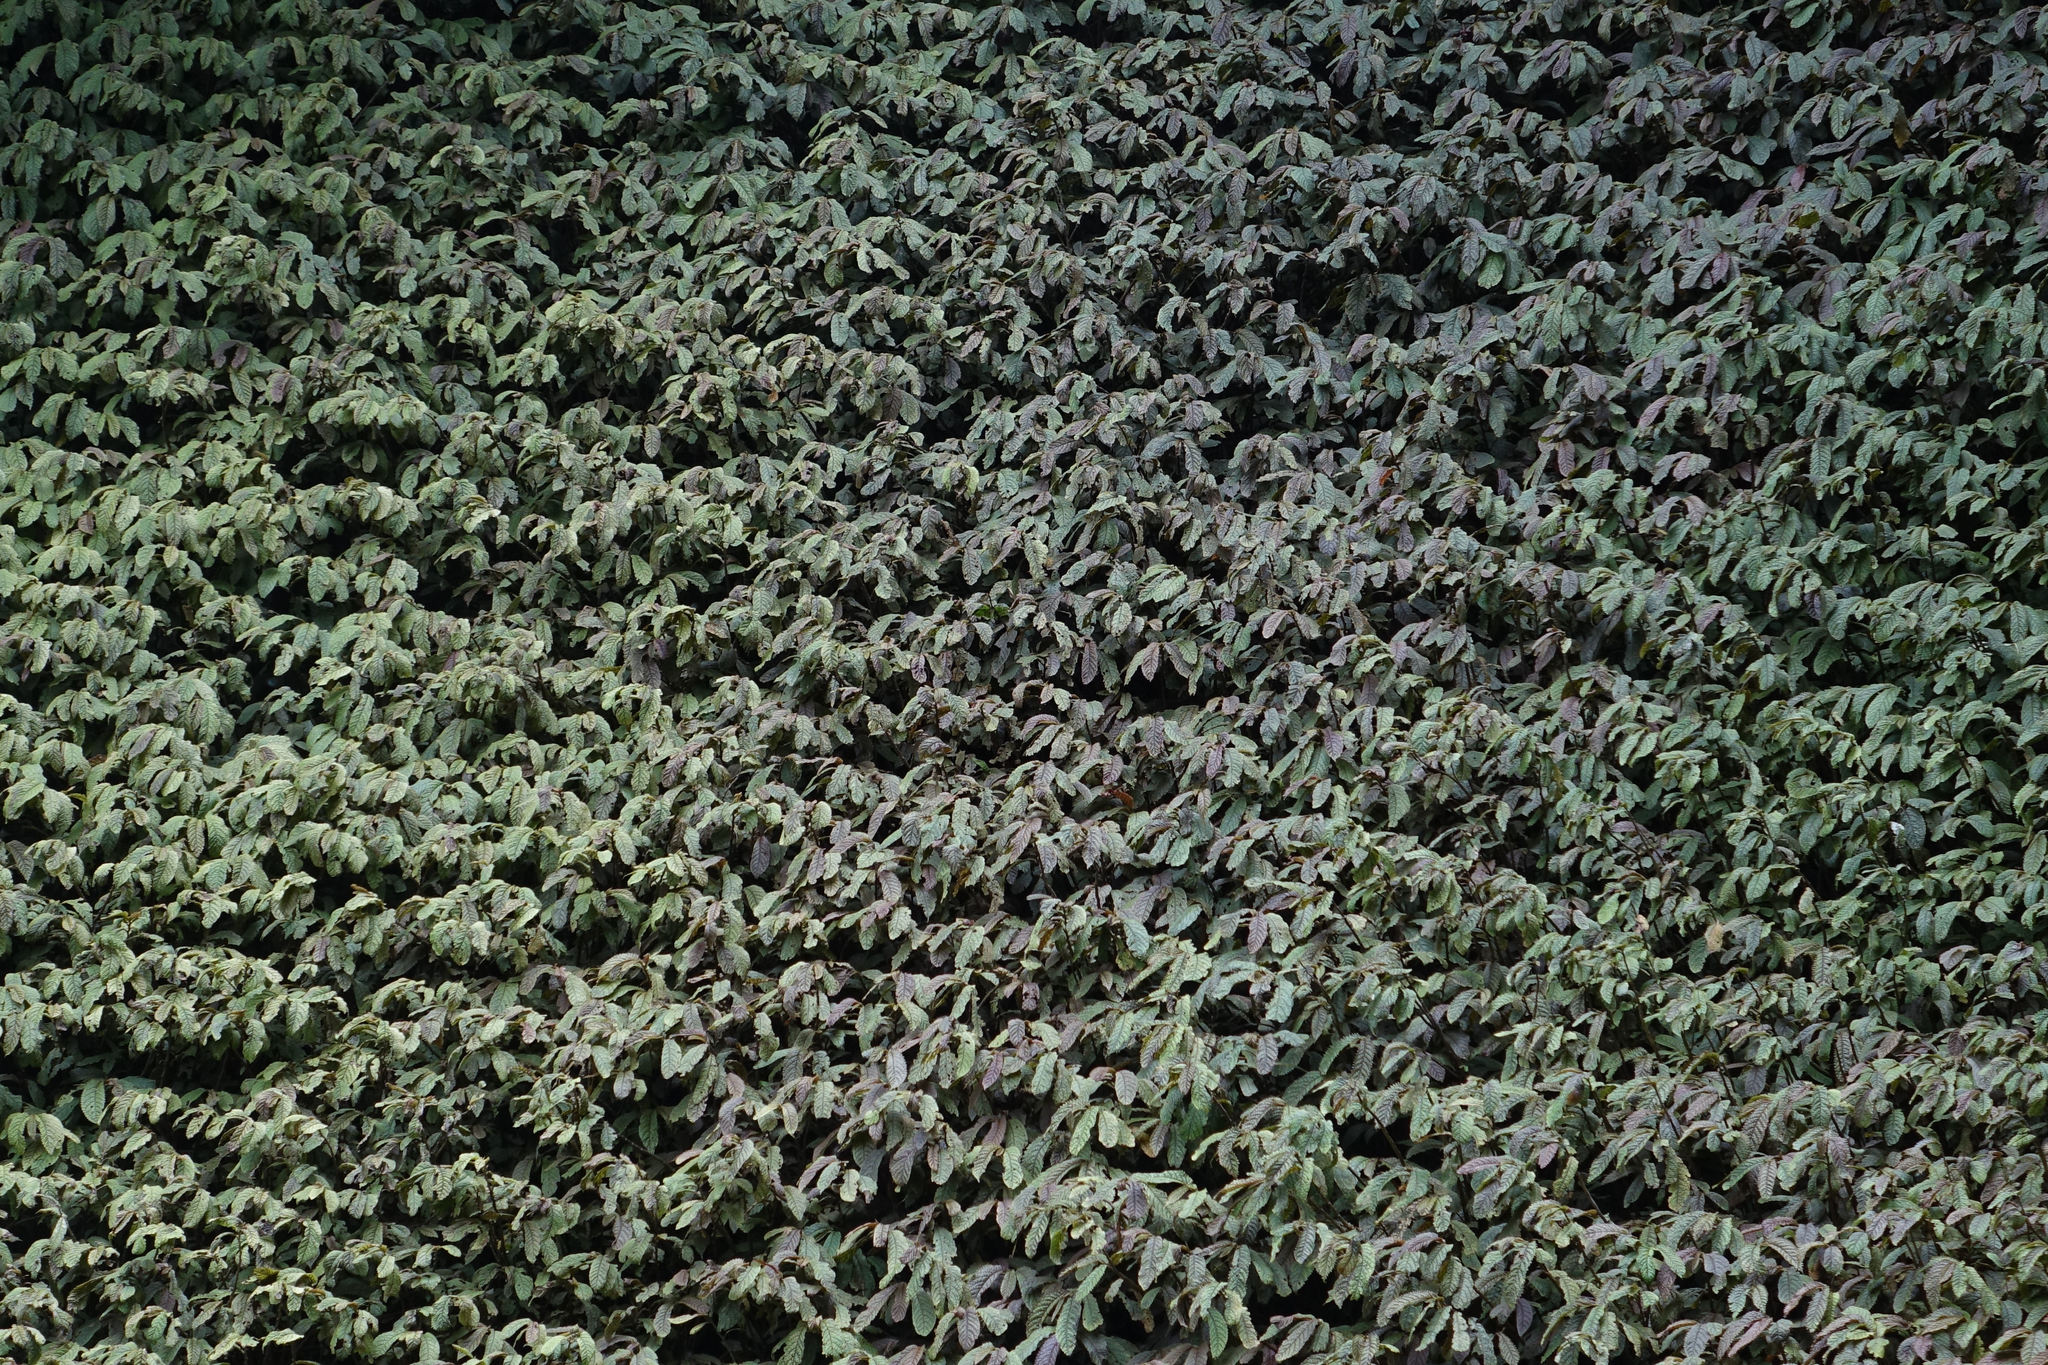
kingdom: Plantae
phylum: Tracheophyta
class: Magnoliopsida
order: Rosales
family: Urticaceae
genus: Elatostema
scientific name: Elatostema rugosum
